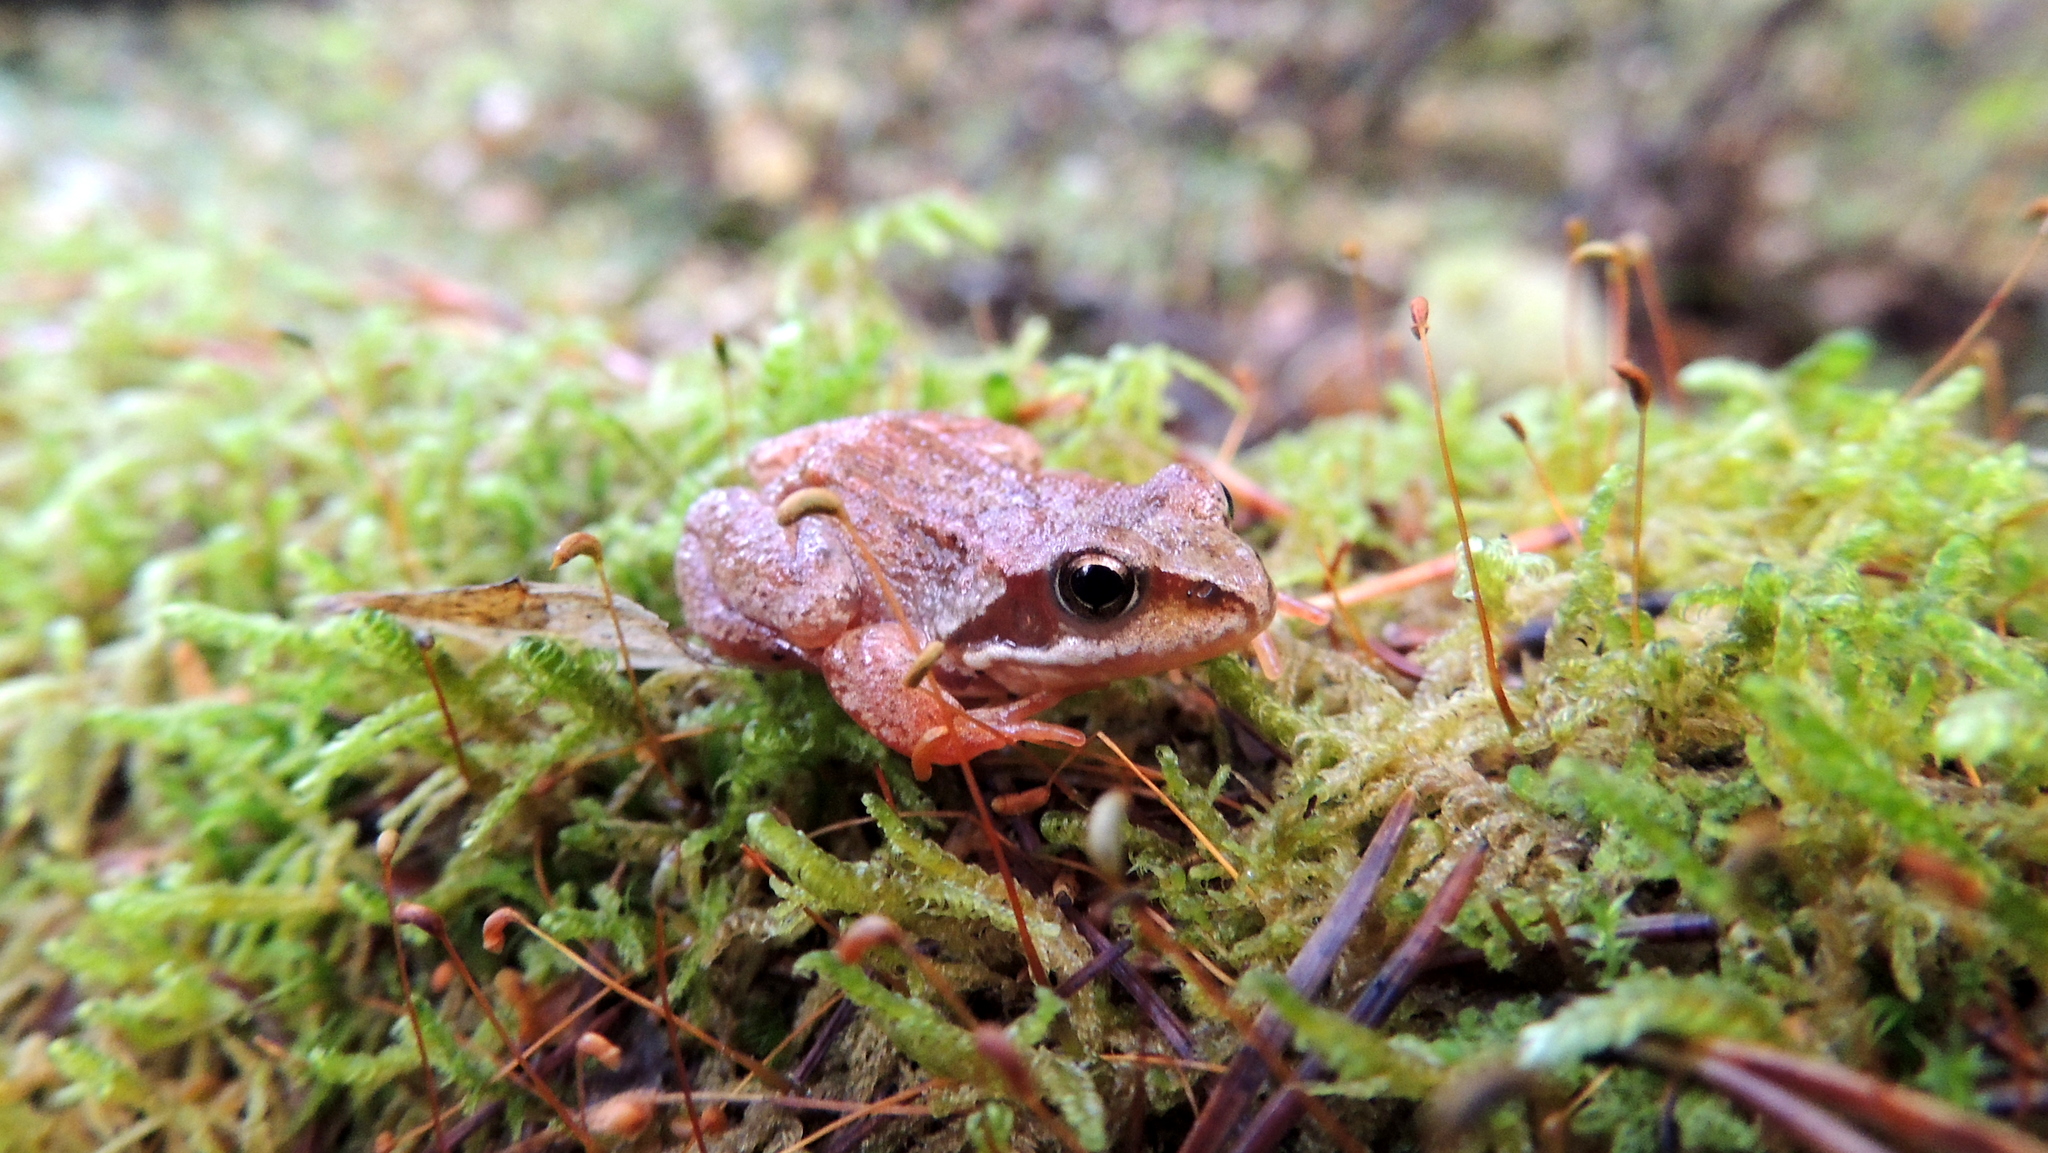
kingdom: Animalia
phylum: Chordata
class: Amphibia
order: Anura
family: Ranidae
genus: Rana
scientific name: Rana temporaria
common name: Common frog
